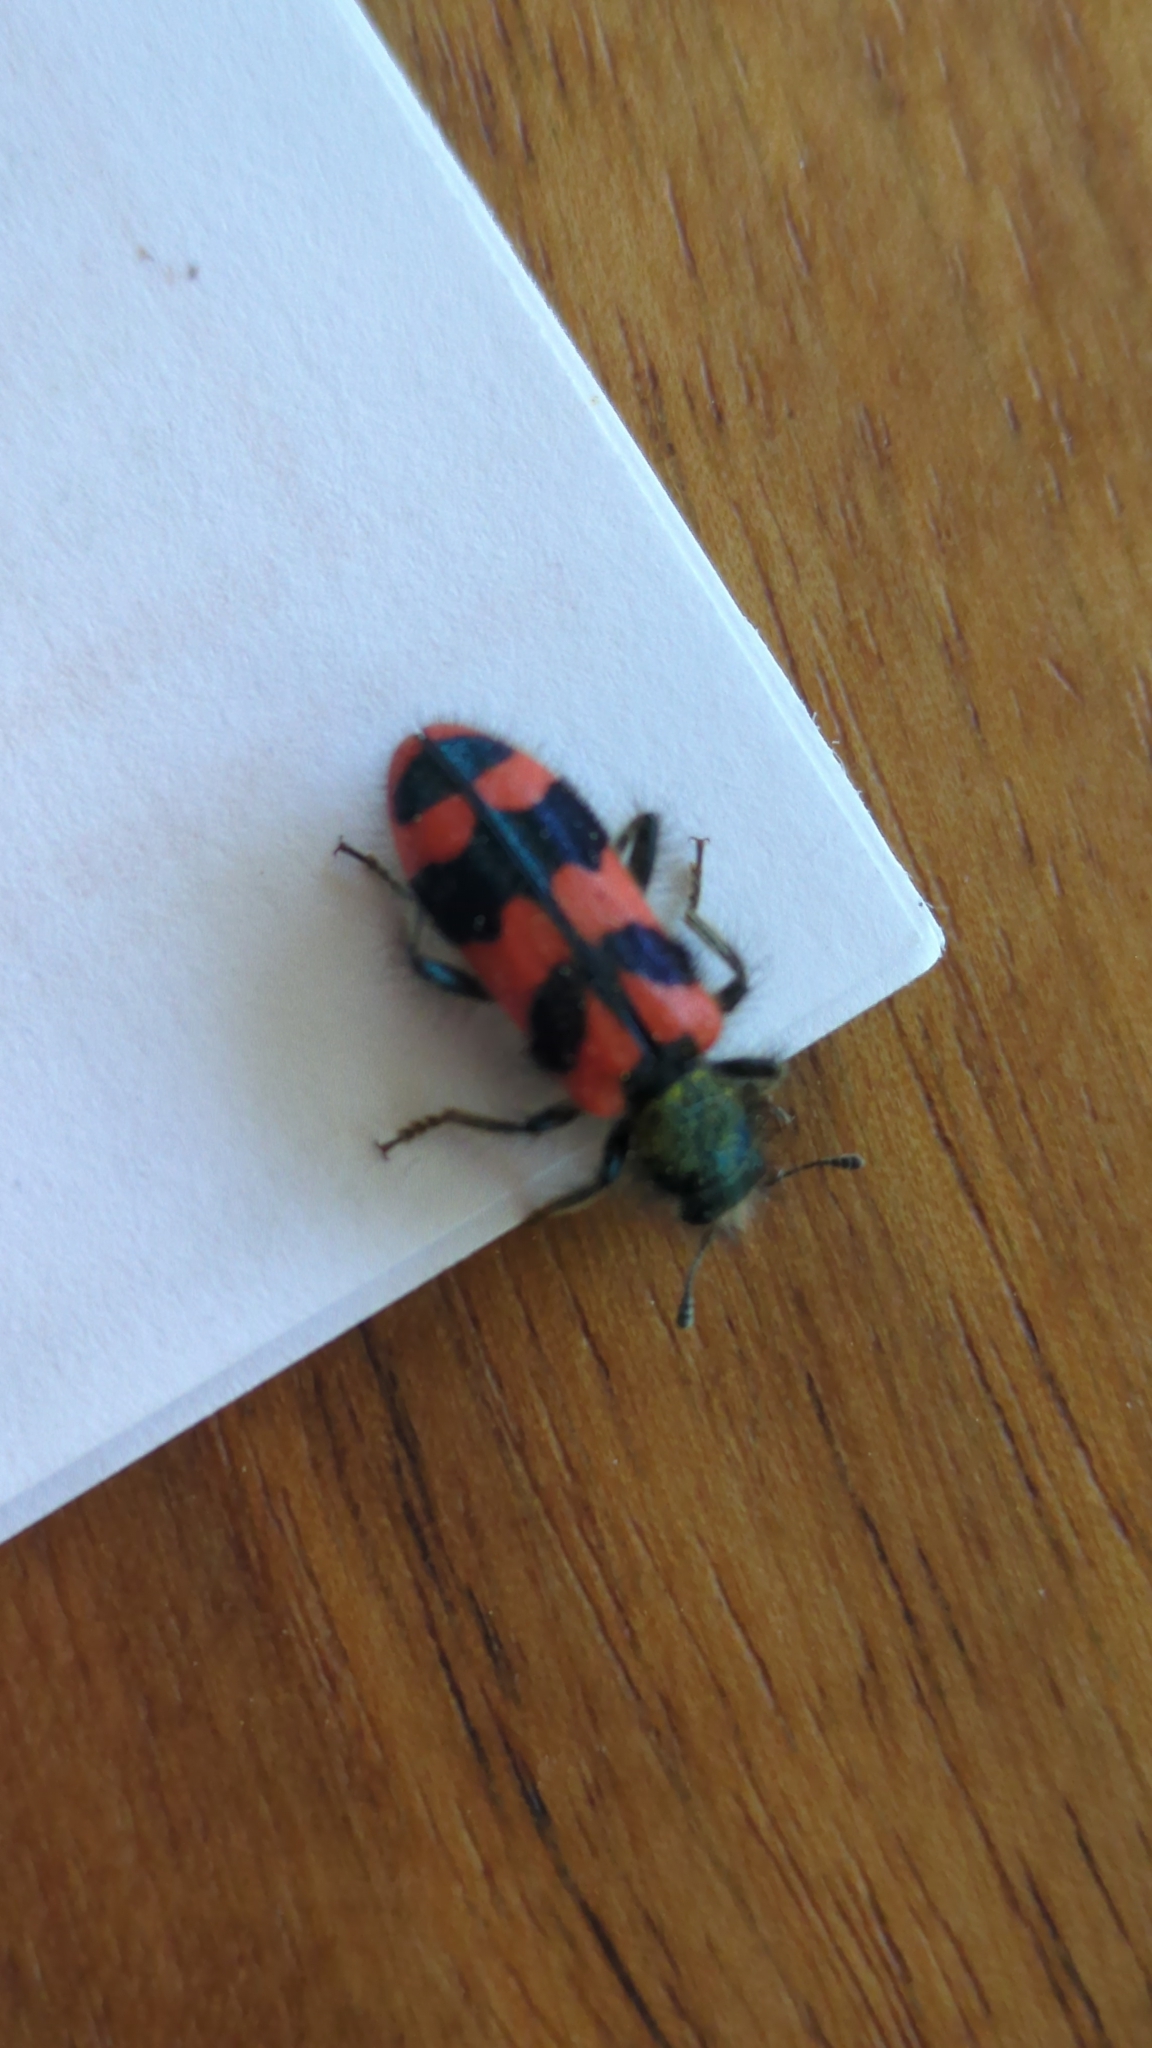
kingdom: Animalia
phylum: Arthropoda
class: Insecta
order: Coleoptera
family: Cleridae
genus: Trichodes
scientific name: Trichodes alvearius
